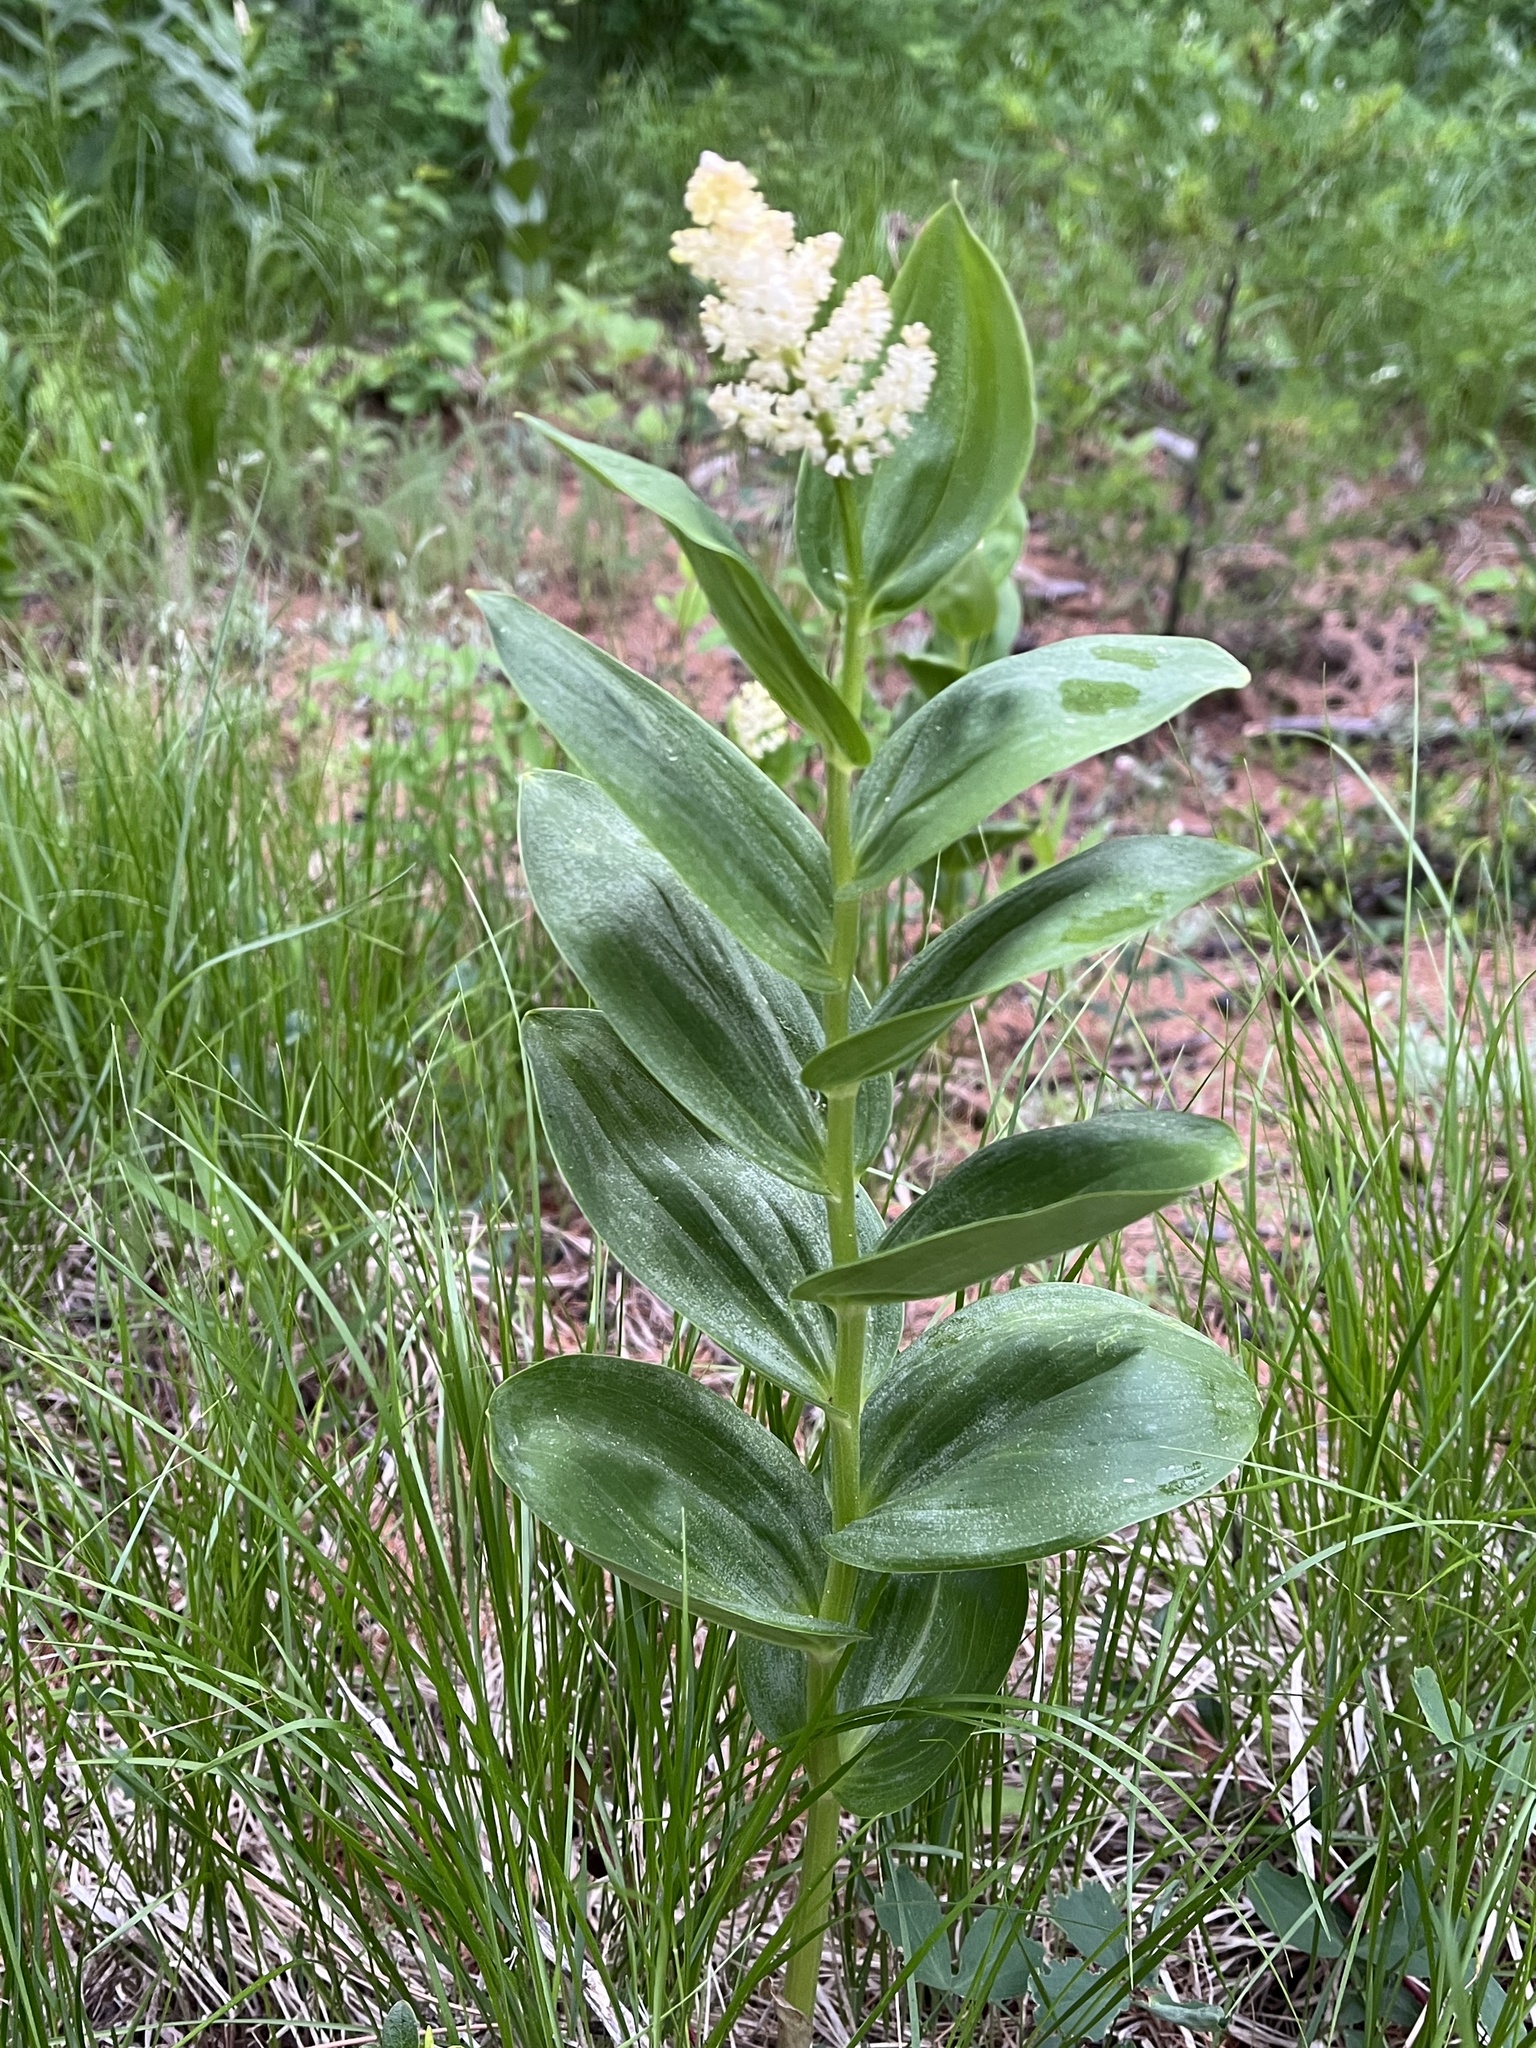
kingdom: Plantae
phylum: Tracheophyta
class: Liliopsida
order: Asparagales
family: Asparagaceae
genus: Maianthemum
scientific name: Maianthemum racemosum
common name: False spikenard
